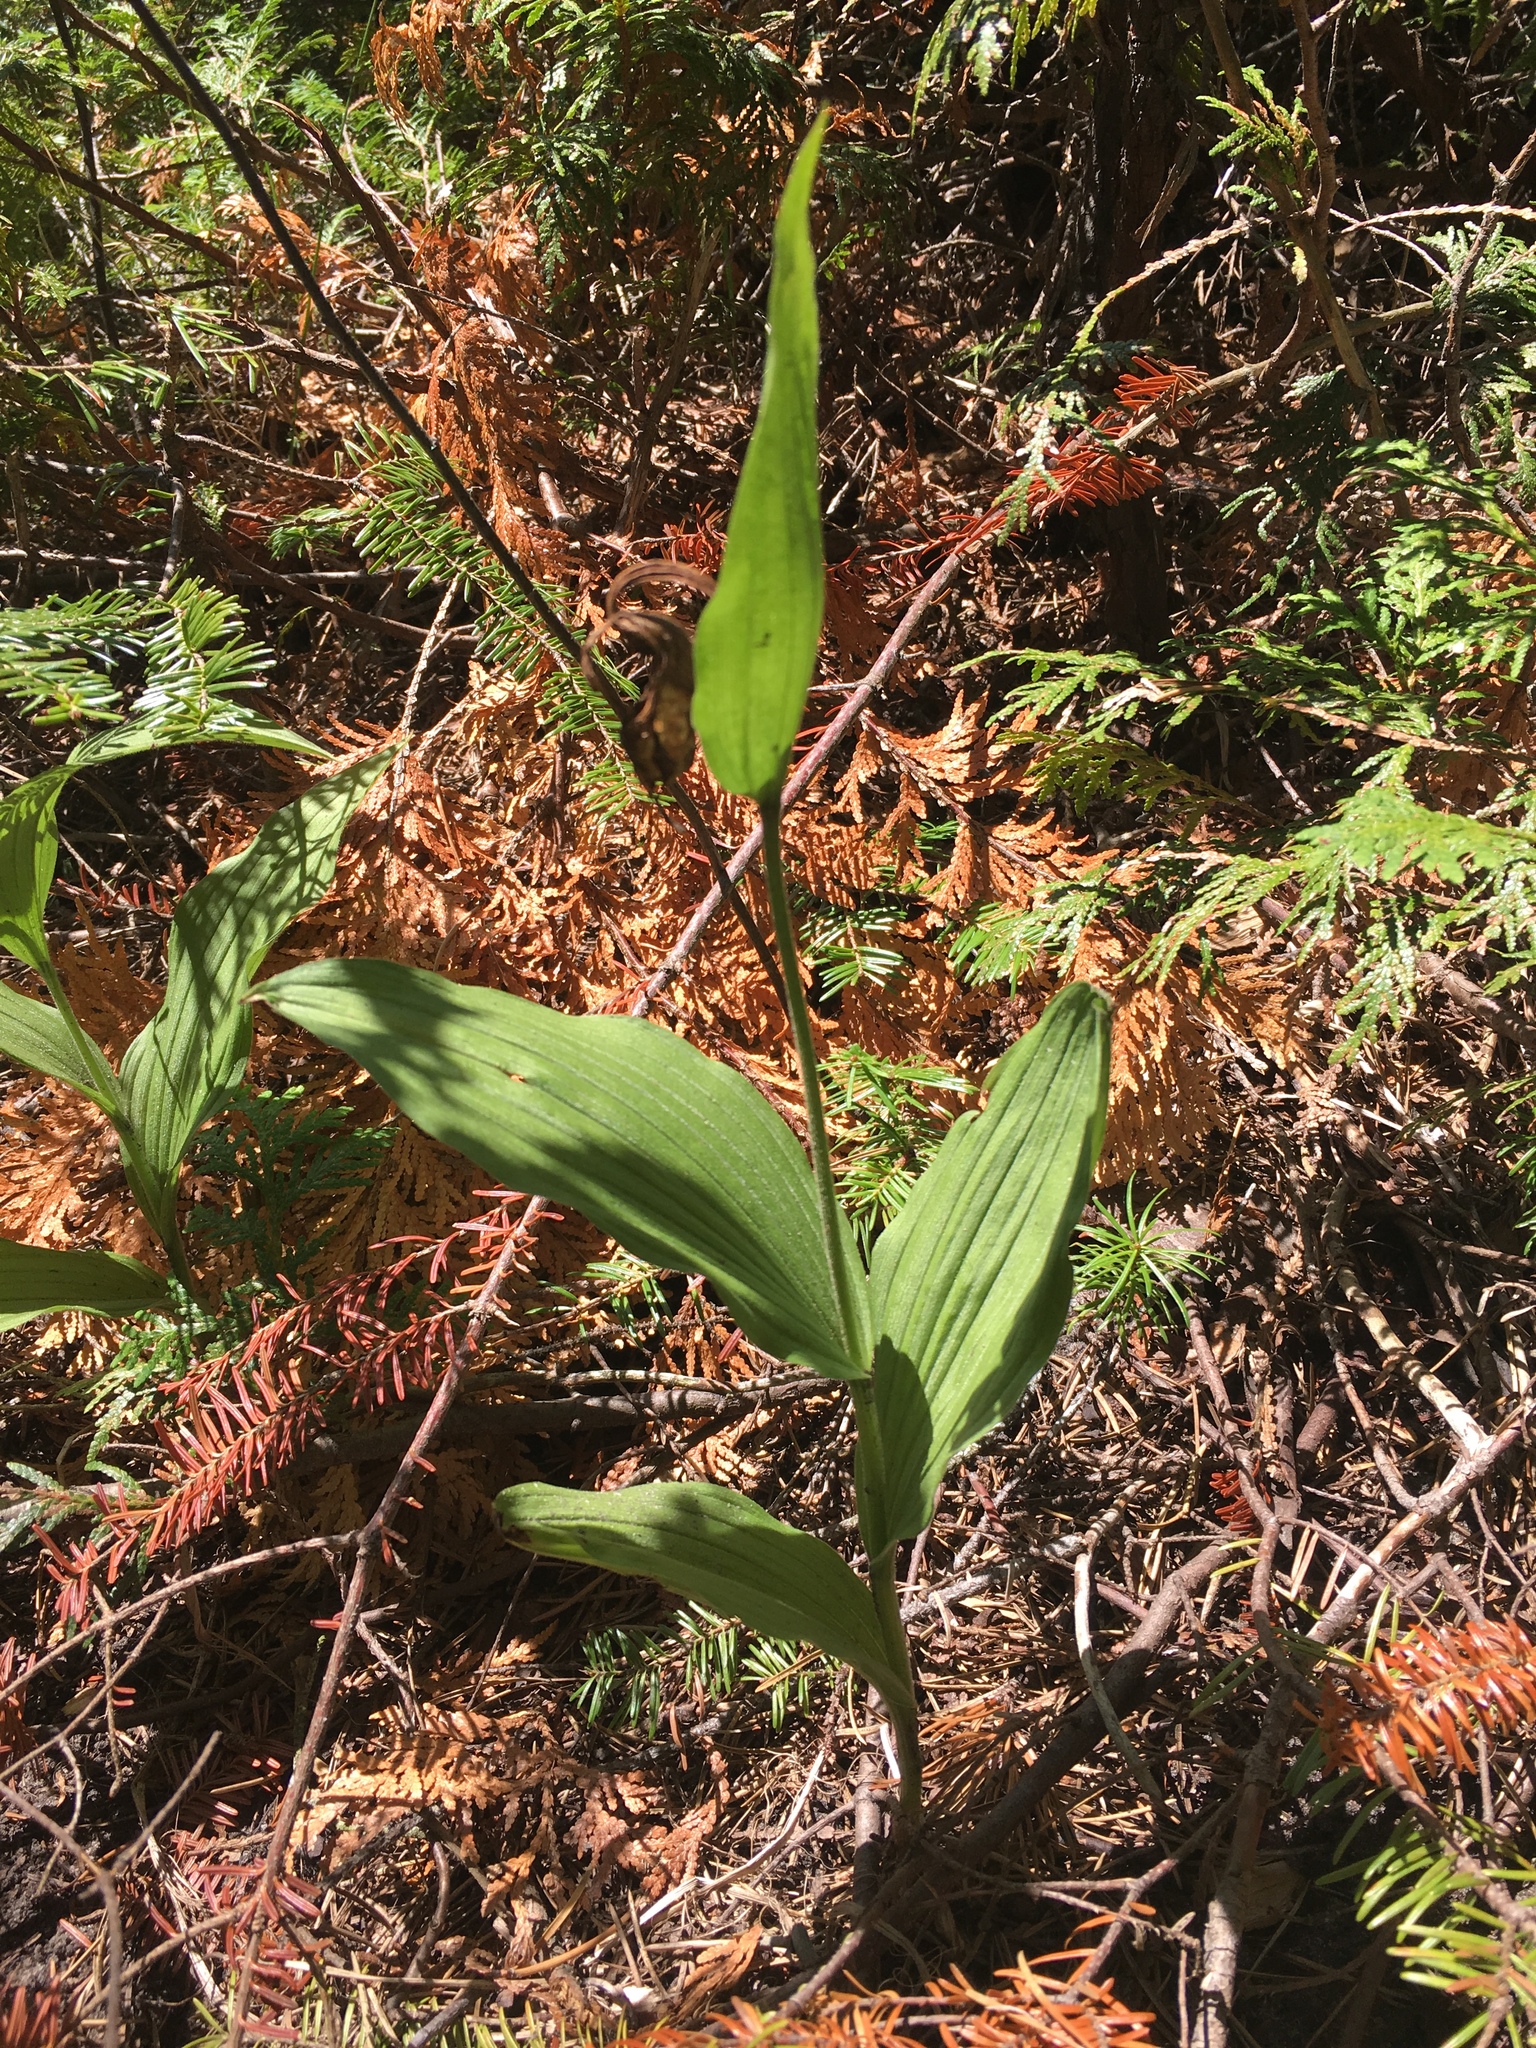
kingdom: Plantae
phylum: Tracheophyta
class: Liliopsida
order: Asparagales
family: Orchidaceae
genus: Cypripedium
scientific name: Cypripedium parviflorum
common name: American yellow lady's-slipper
